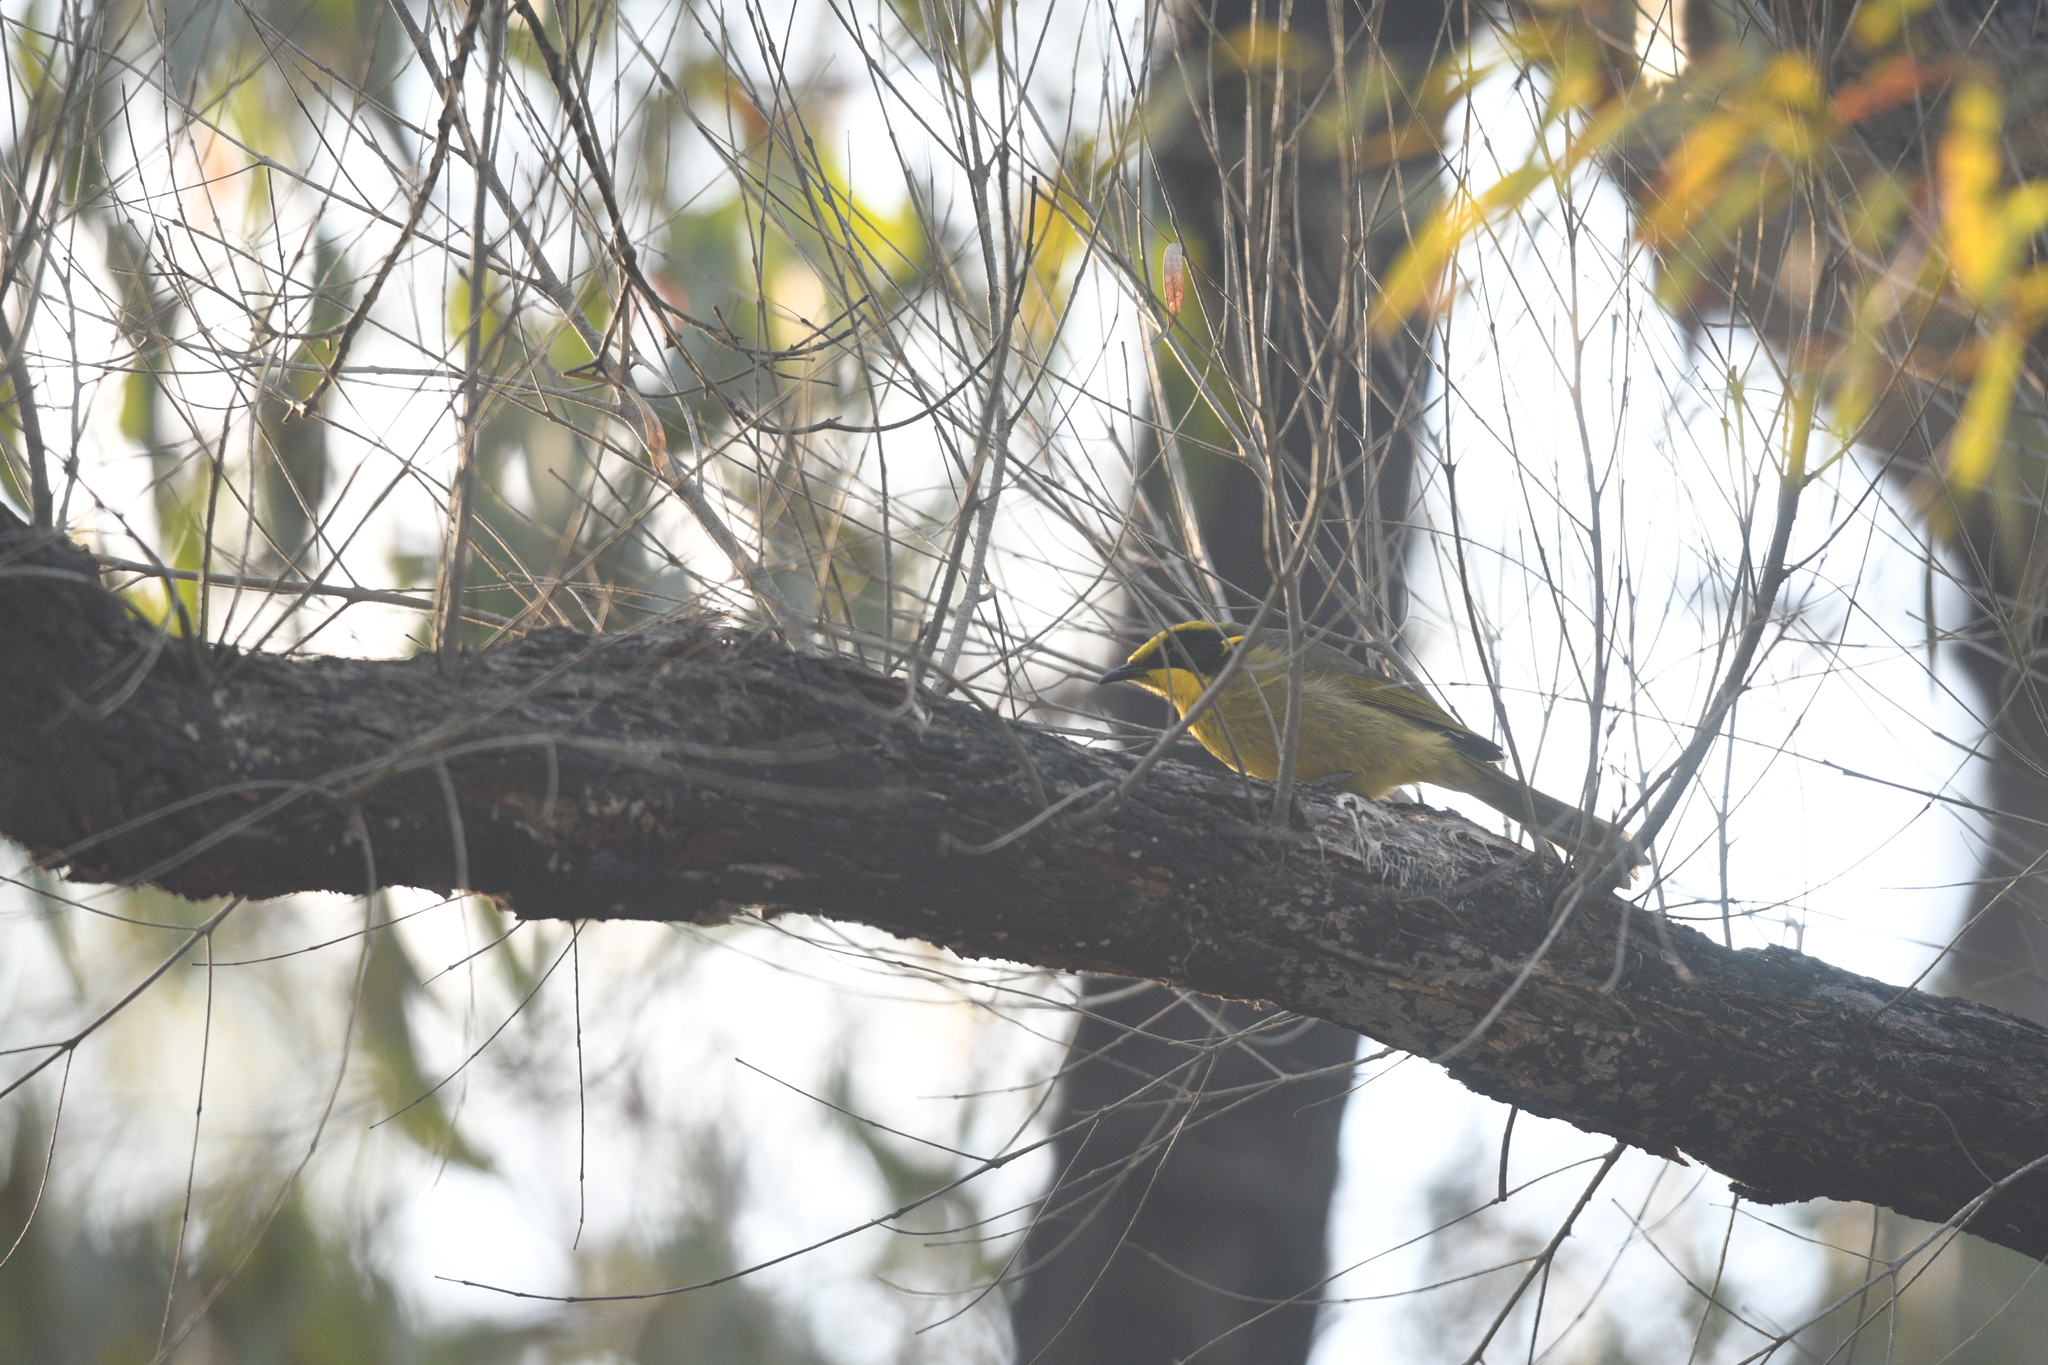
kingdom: Animalia
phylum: Chordata
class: Aves
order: Passeriformes
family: Meliphagidae
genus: Lichenostomus
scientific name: Lichenostomus melanops
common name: Yellow-tufted honeyeater
